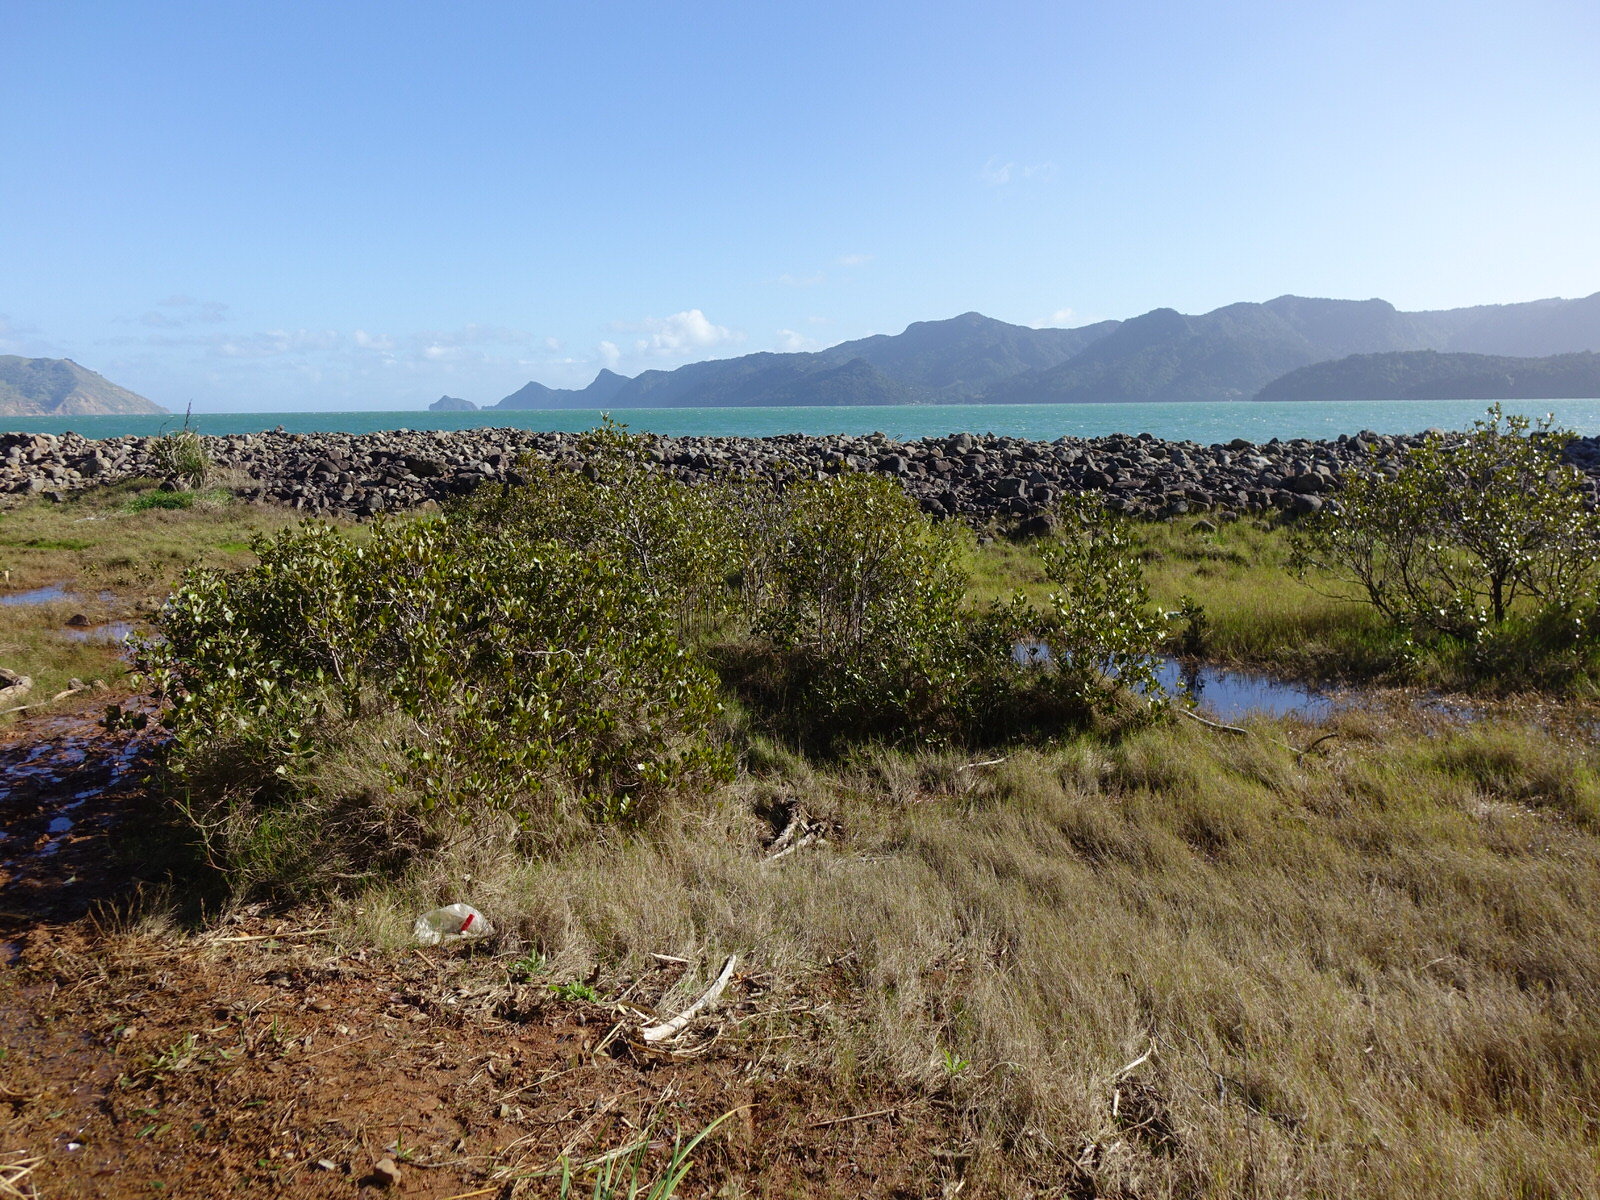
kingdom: Plantae
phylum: Tracheophyta
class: Magnoliopsida
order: Lamiales
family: Acanthaceae
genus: Avicennia
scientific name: Avicennia marina
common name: Gray mangrove
